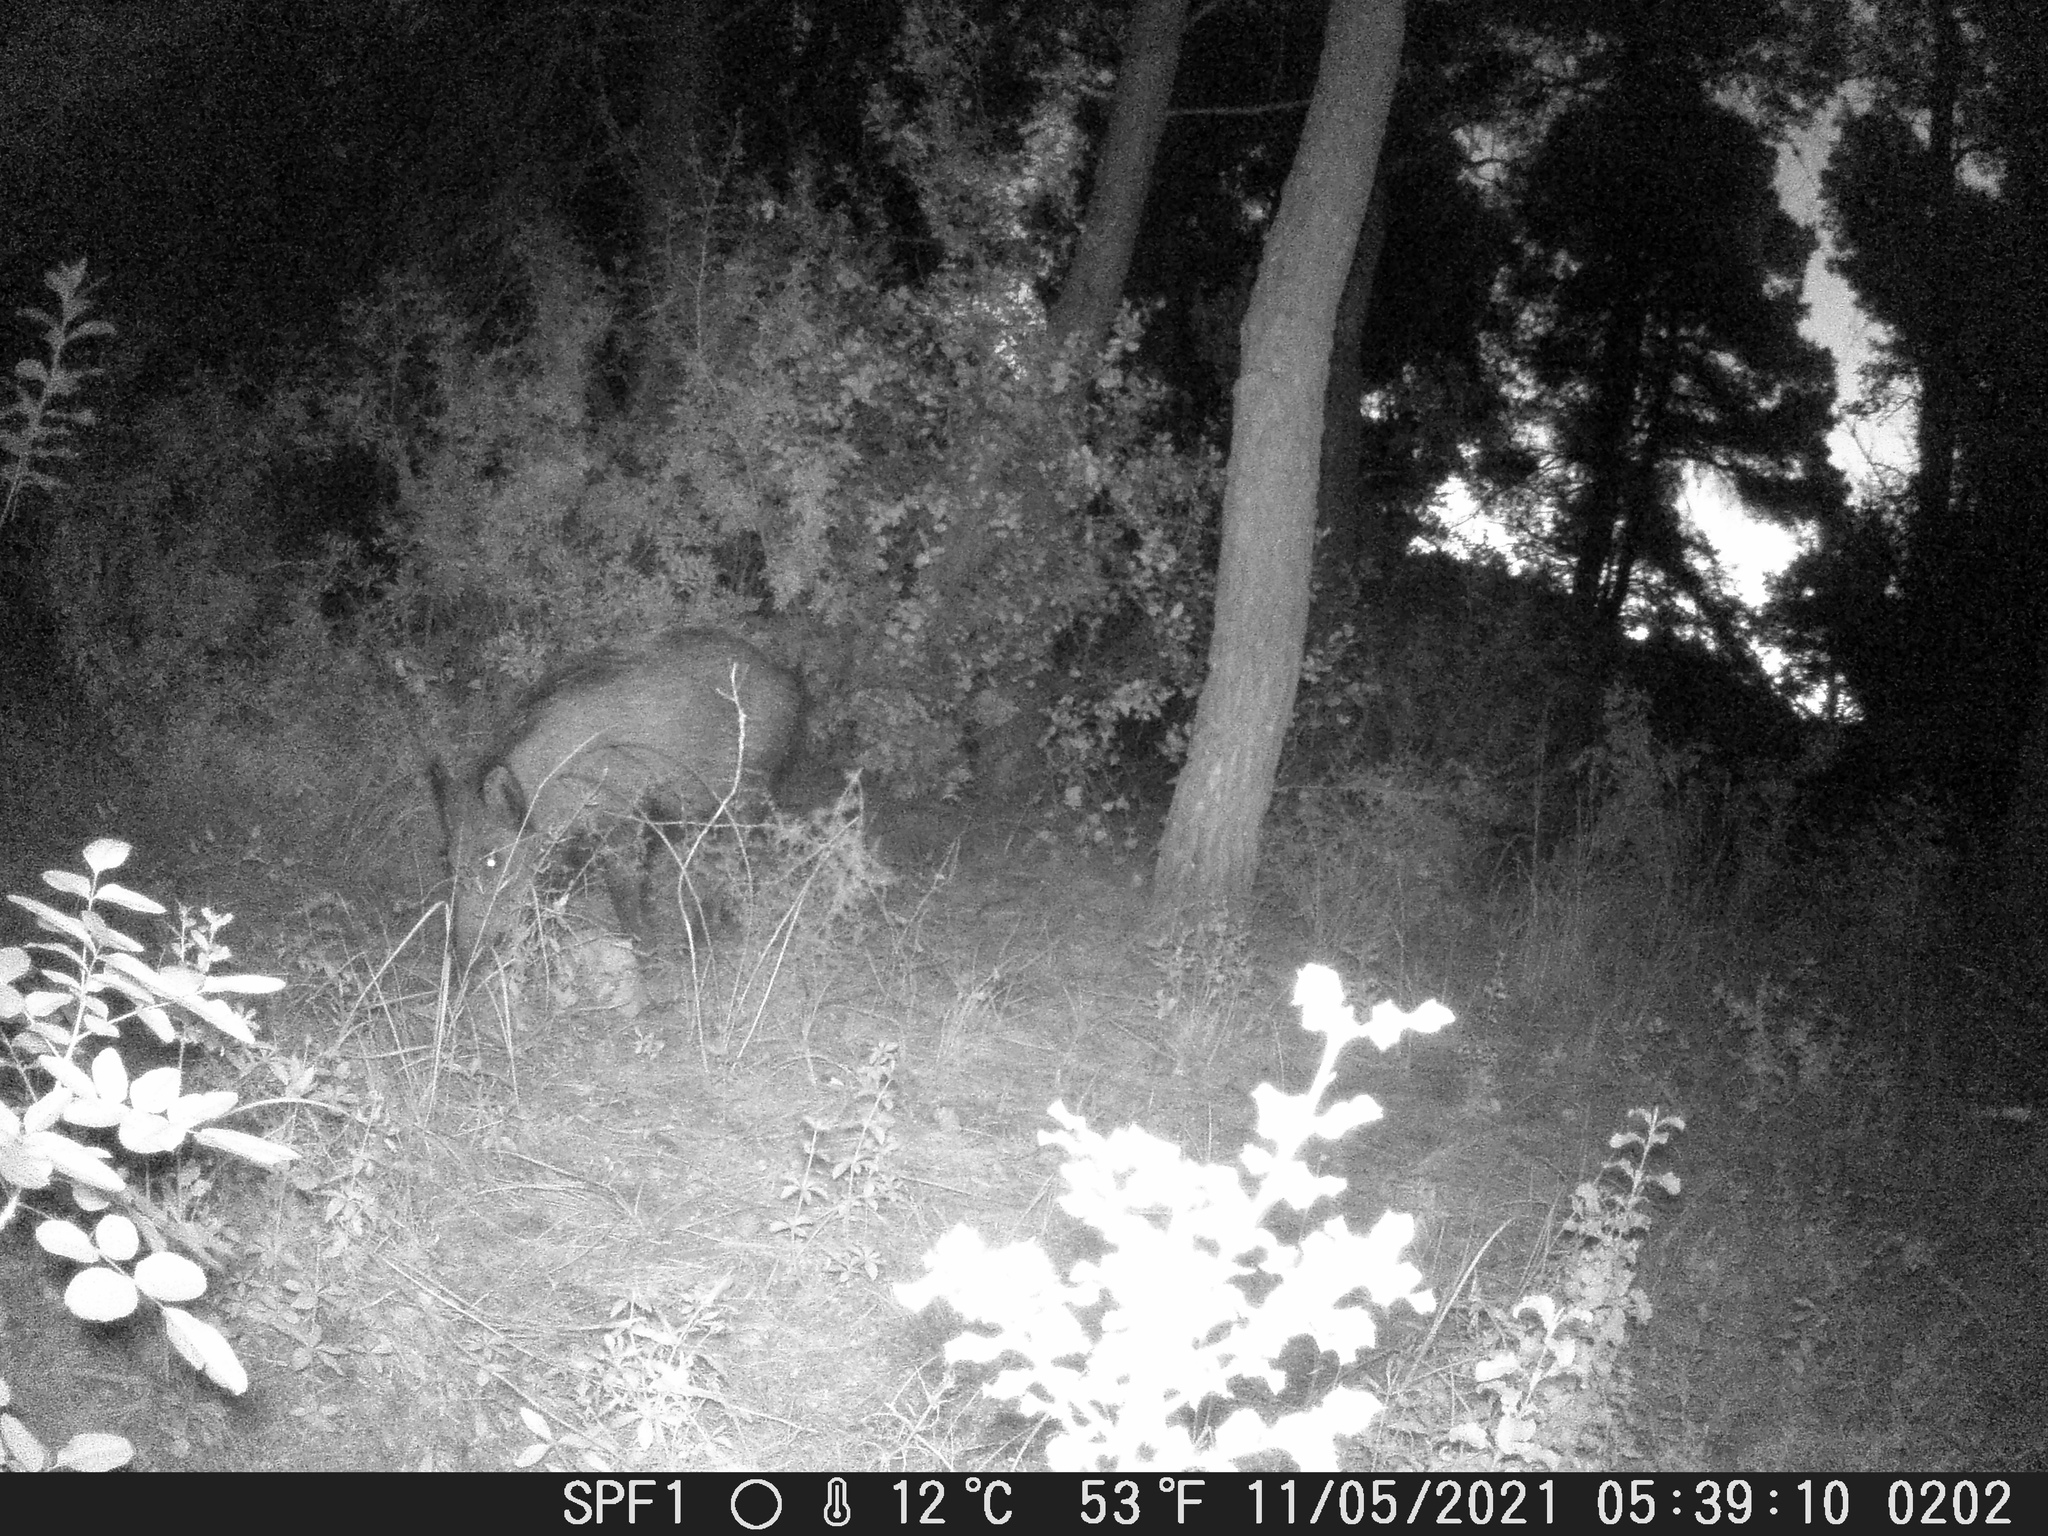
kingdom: Animalia
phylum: Chordata
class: Mammalia
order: Artiodactyla
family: Suidae
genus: Sus
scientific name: Sus scrofa
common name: Wild boar
